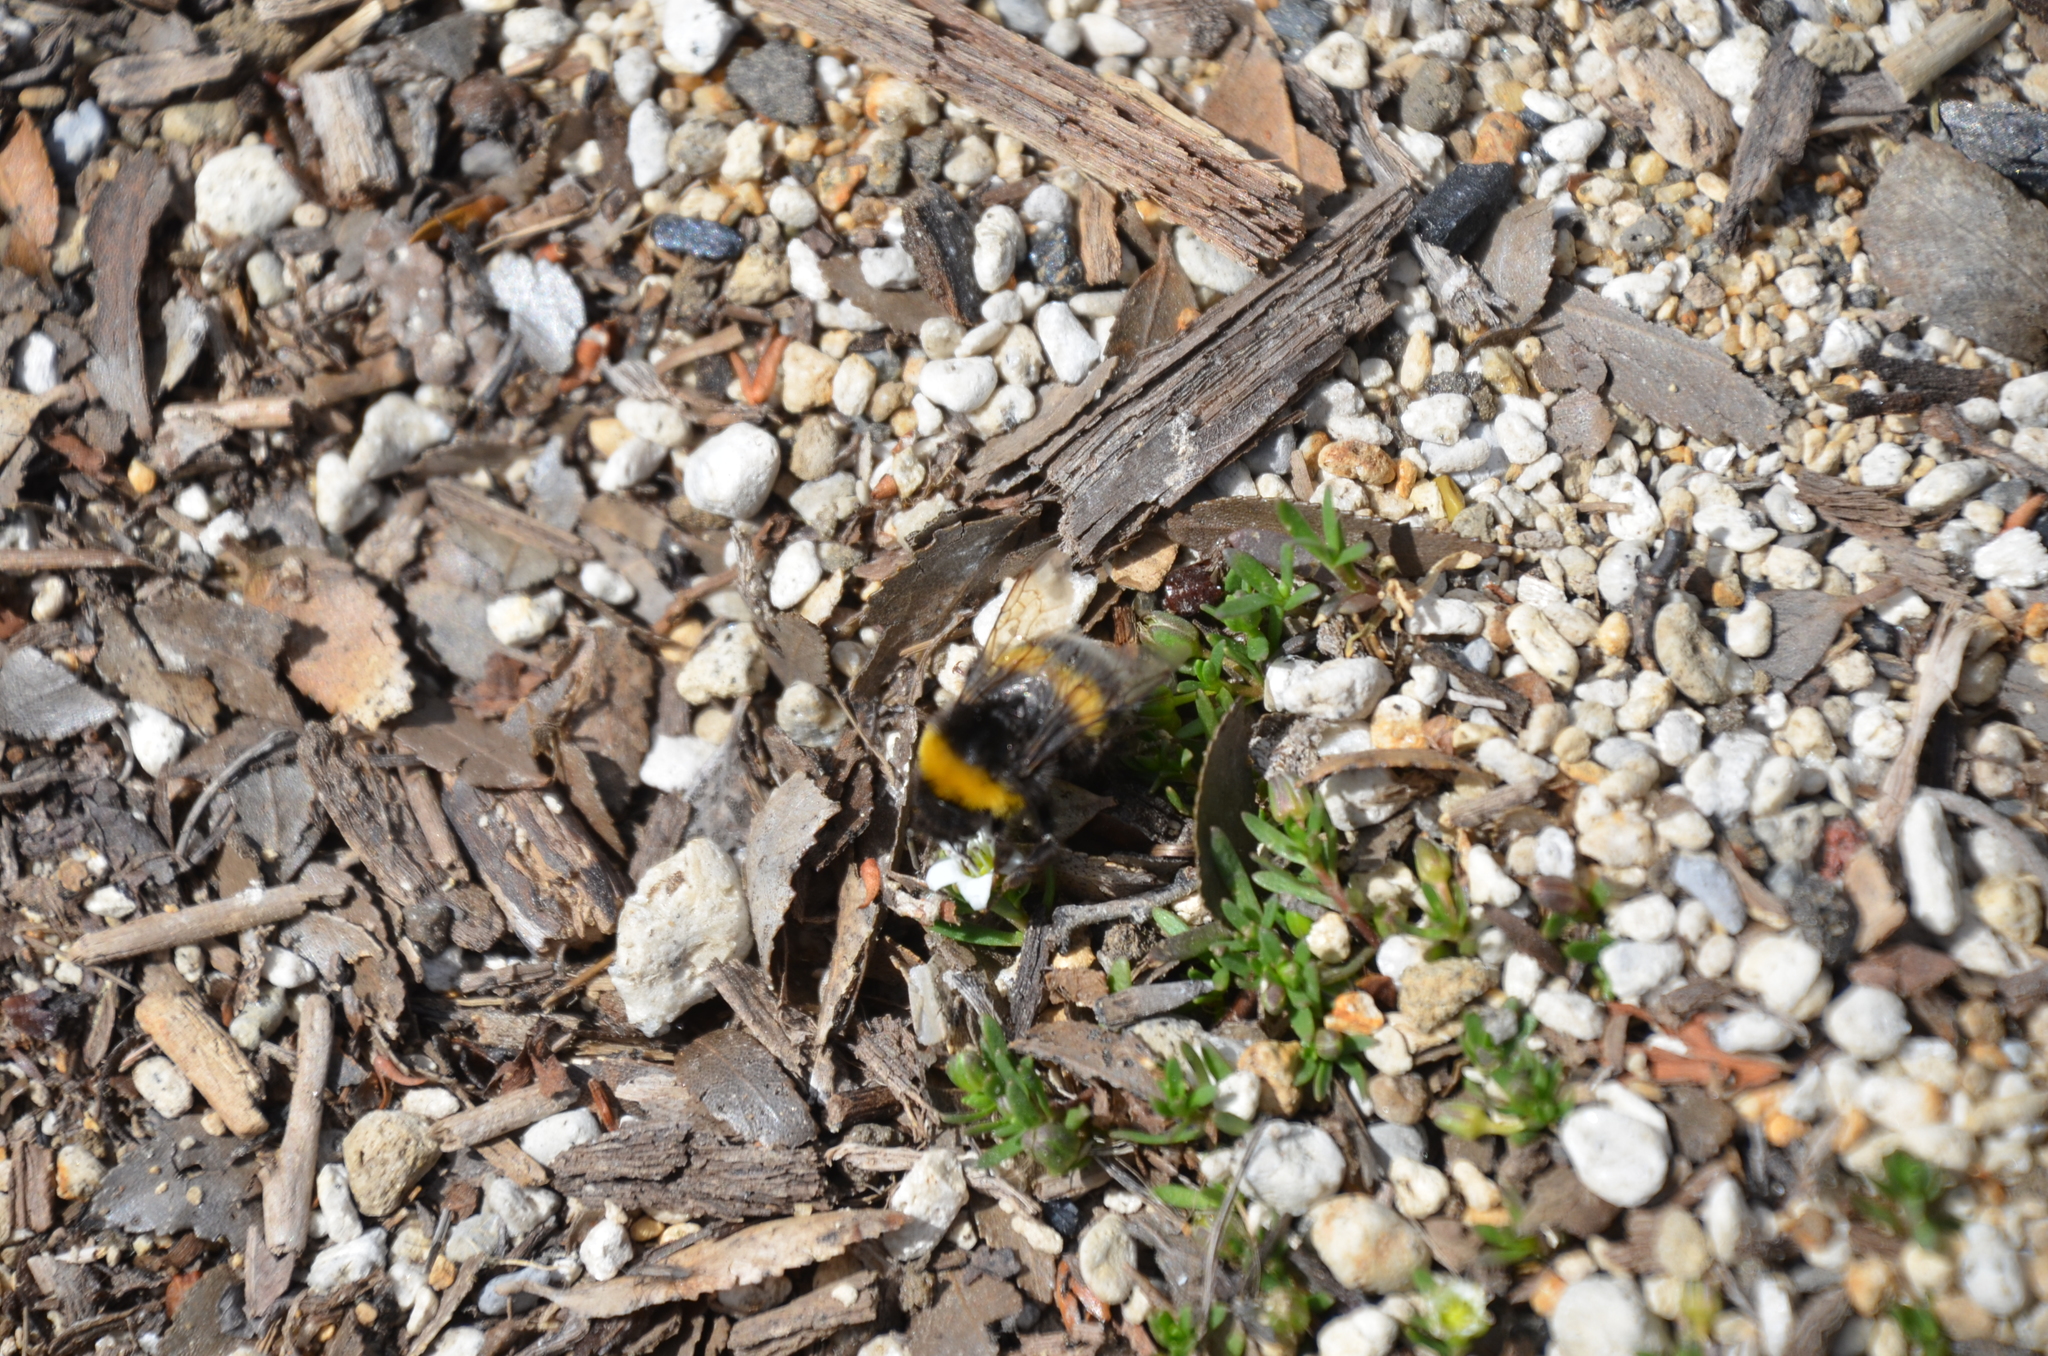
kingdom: Animalia
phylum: Arthropoda
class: Insecta
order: Hymenoptera
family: Apidae
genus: Bombus
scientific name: Bombus terrestris
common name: Buff-tailed bumblebee
